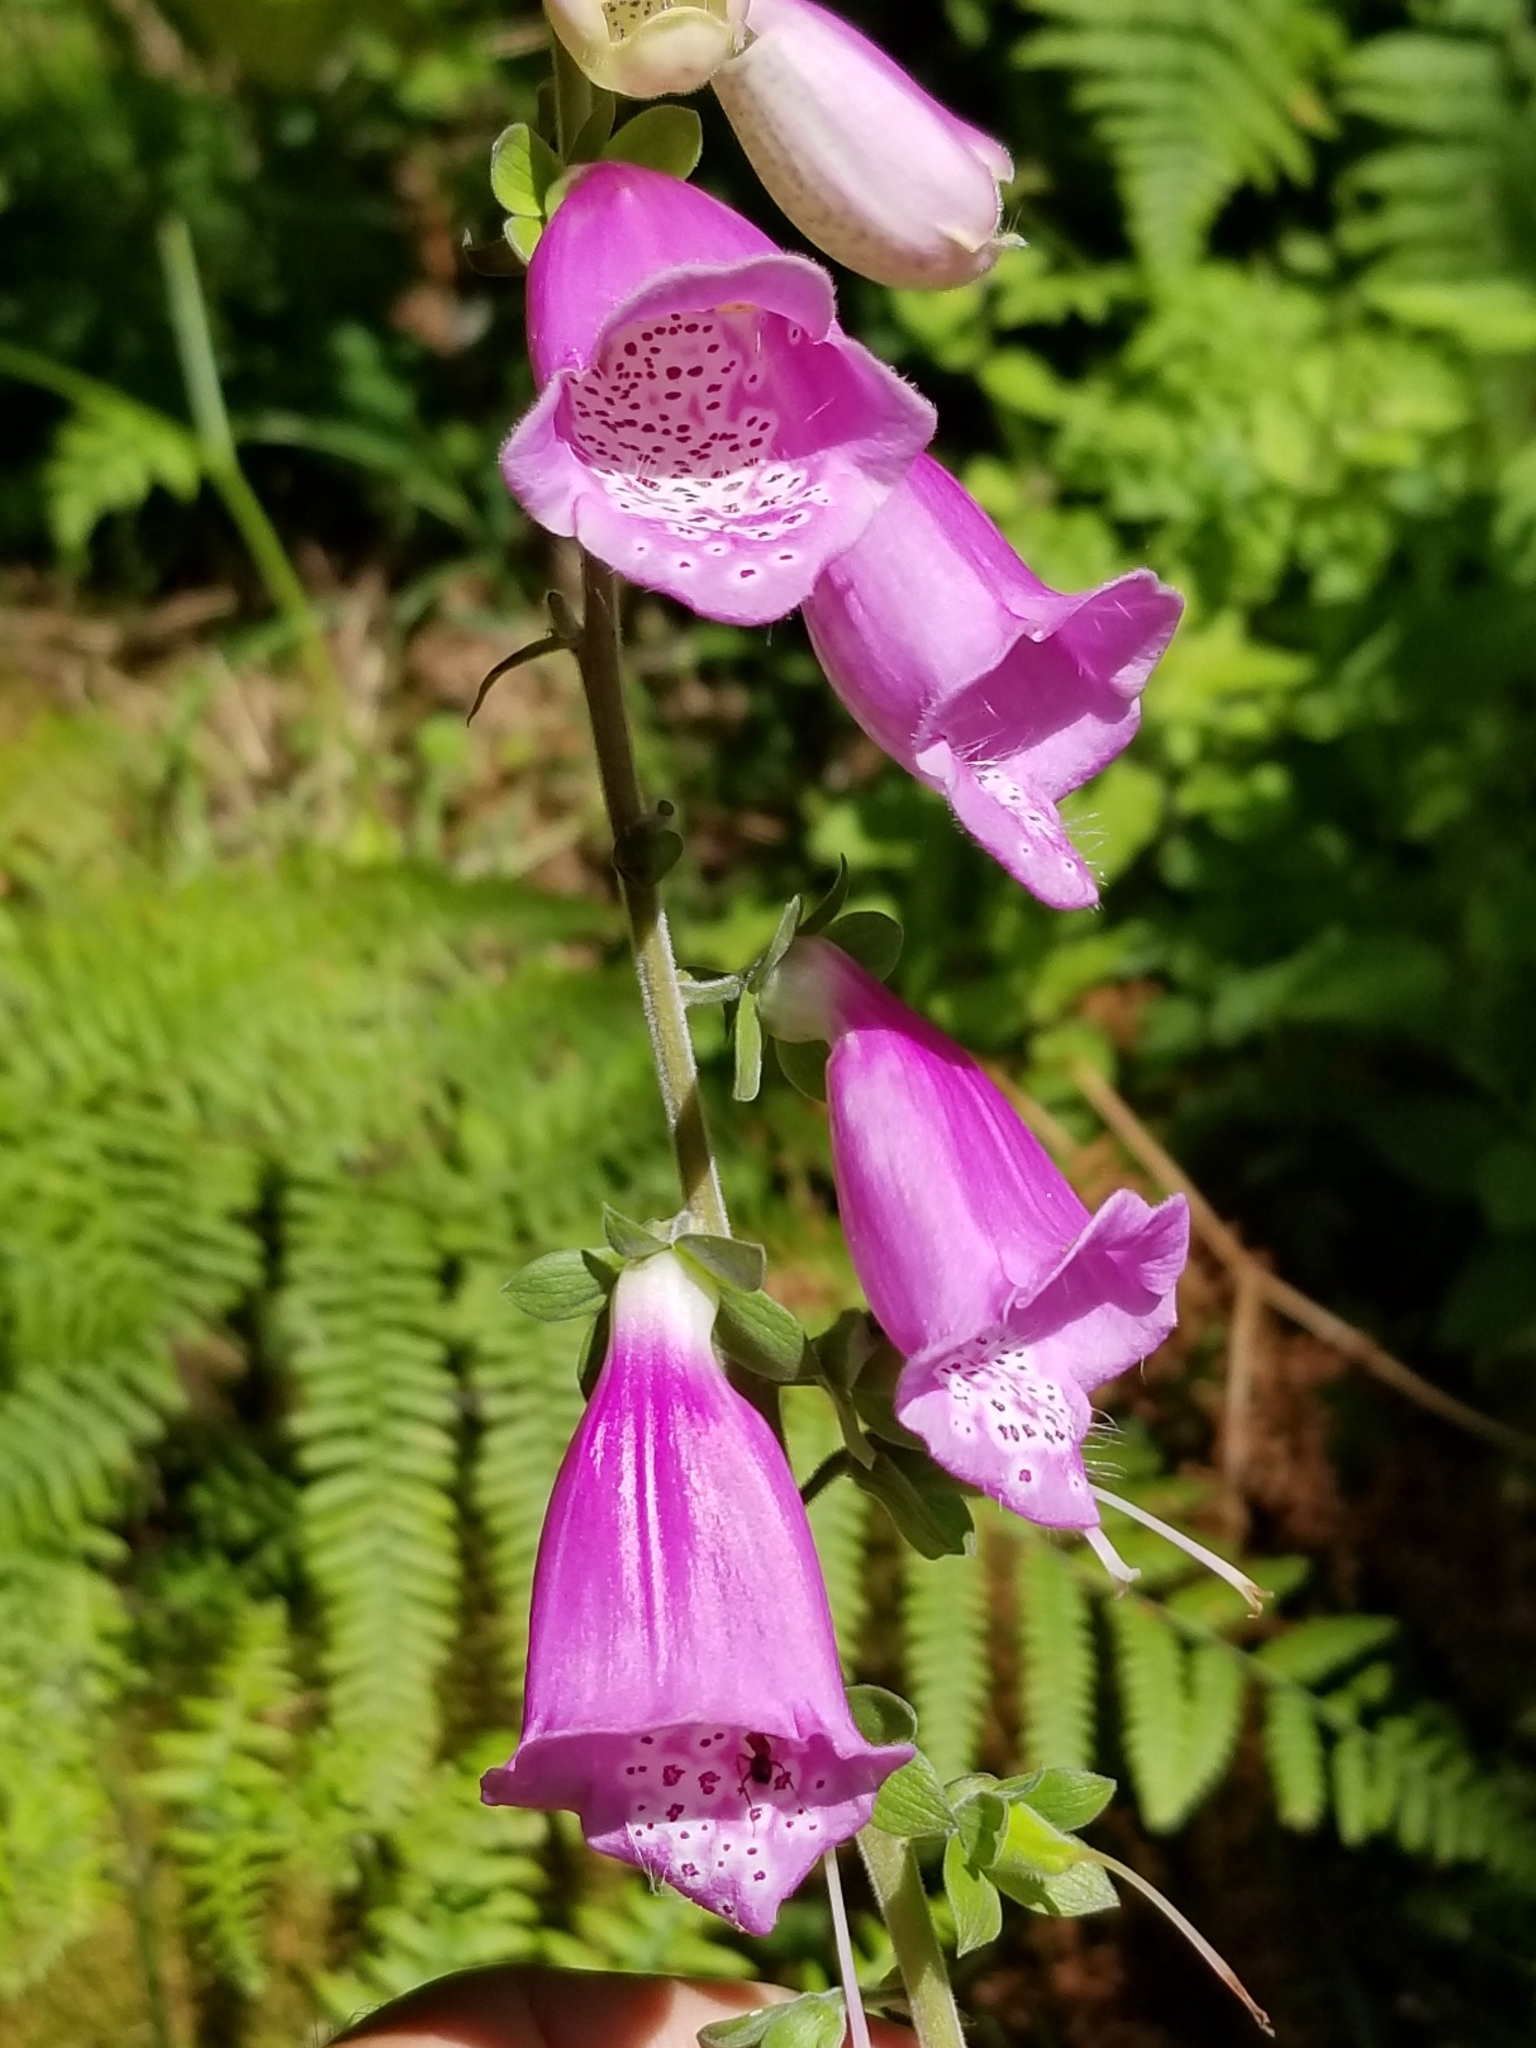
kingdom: Plantae
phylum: Tracheophyta
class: Magnoliopsida
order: Lamiales
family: Plantaginaceae
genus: Digitalis
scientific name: Digitalis purpurea
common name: Foxglove
